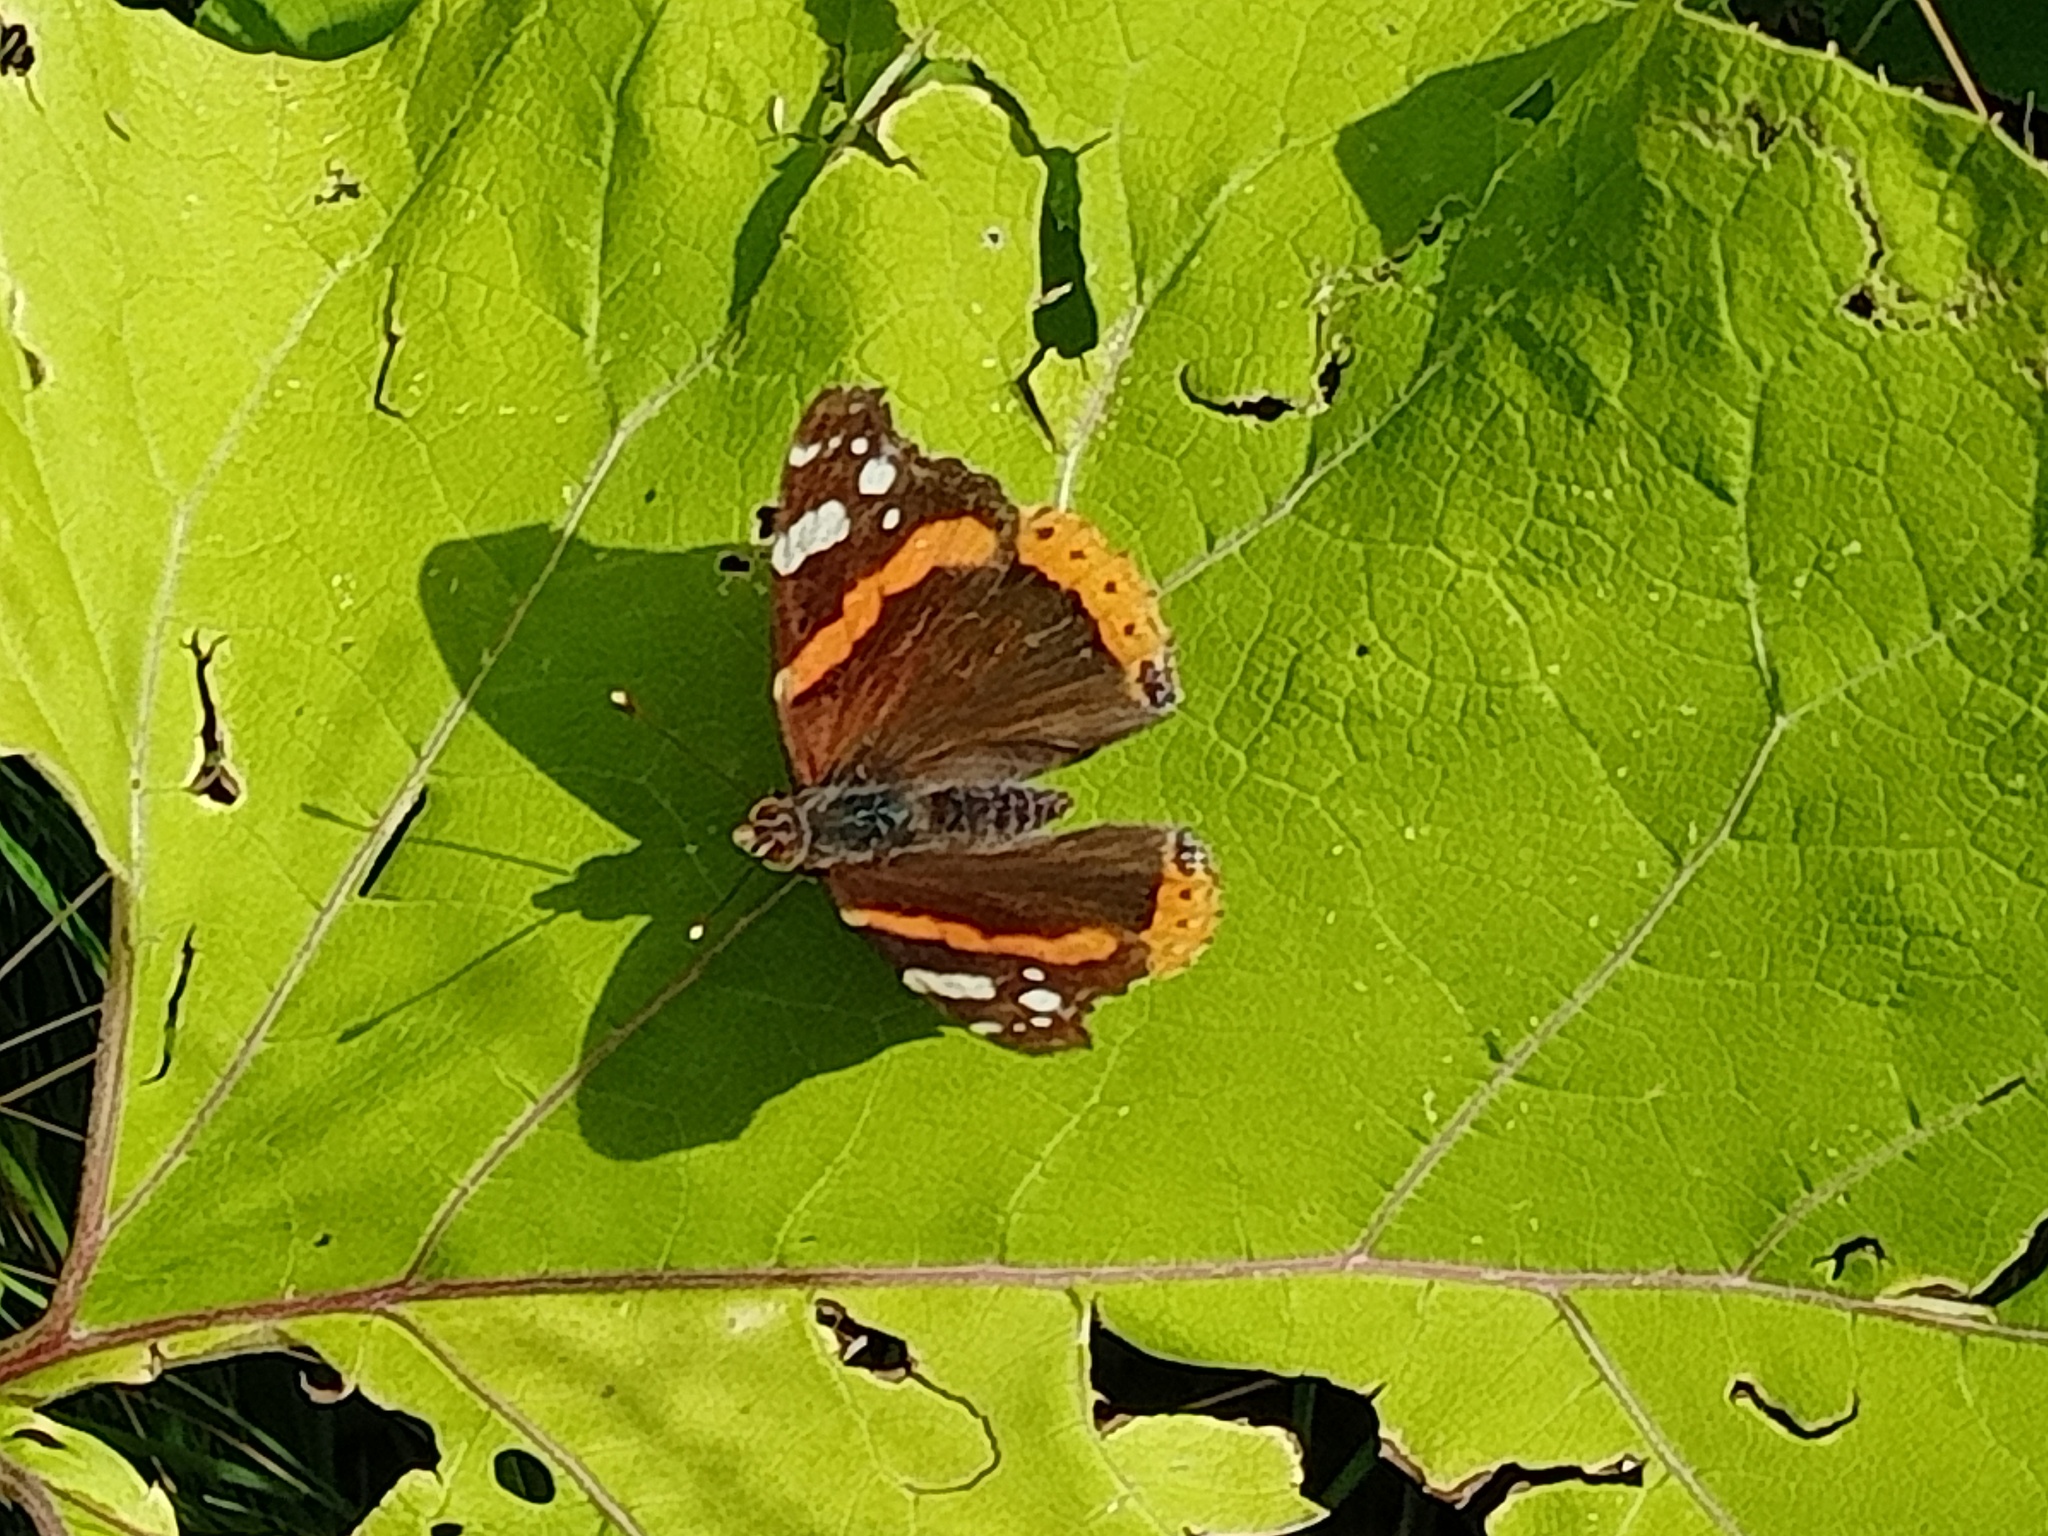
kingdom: Animalia
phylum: Arthropoda
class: Insecta
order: Lepidoptera
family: Nymphalidae
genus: Vanessa
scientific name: Vanessa atalanta
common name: Red admiral
